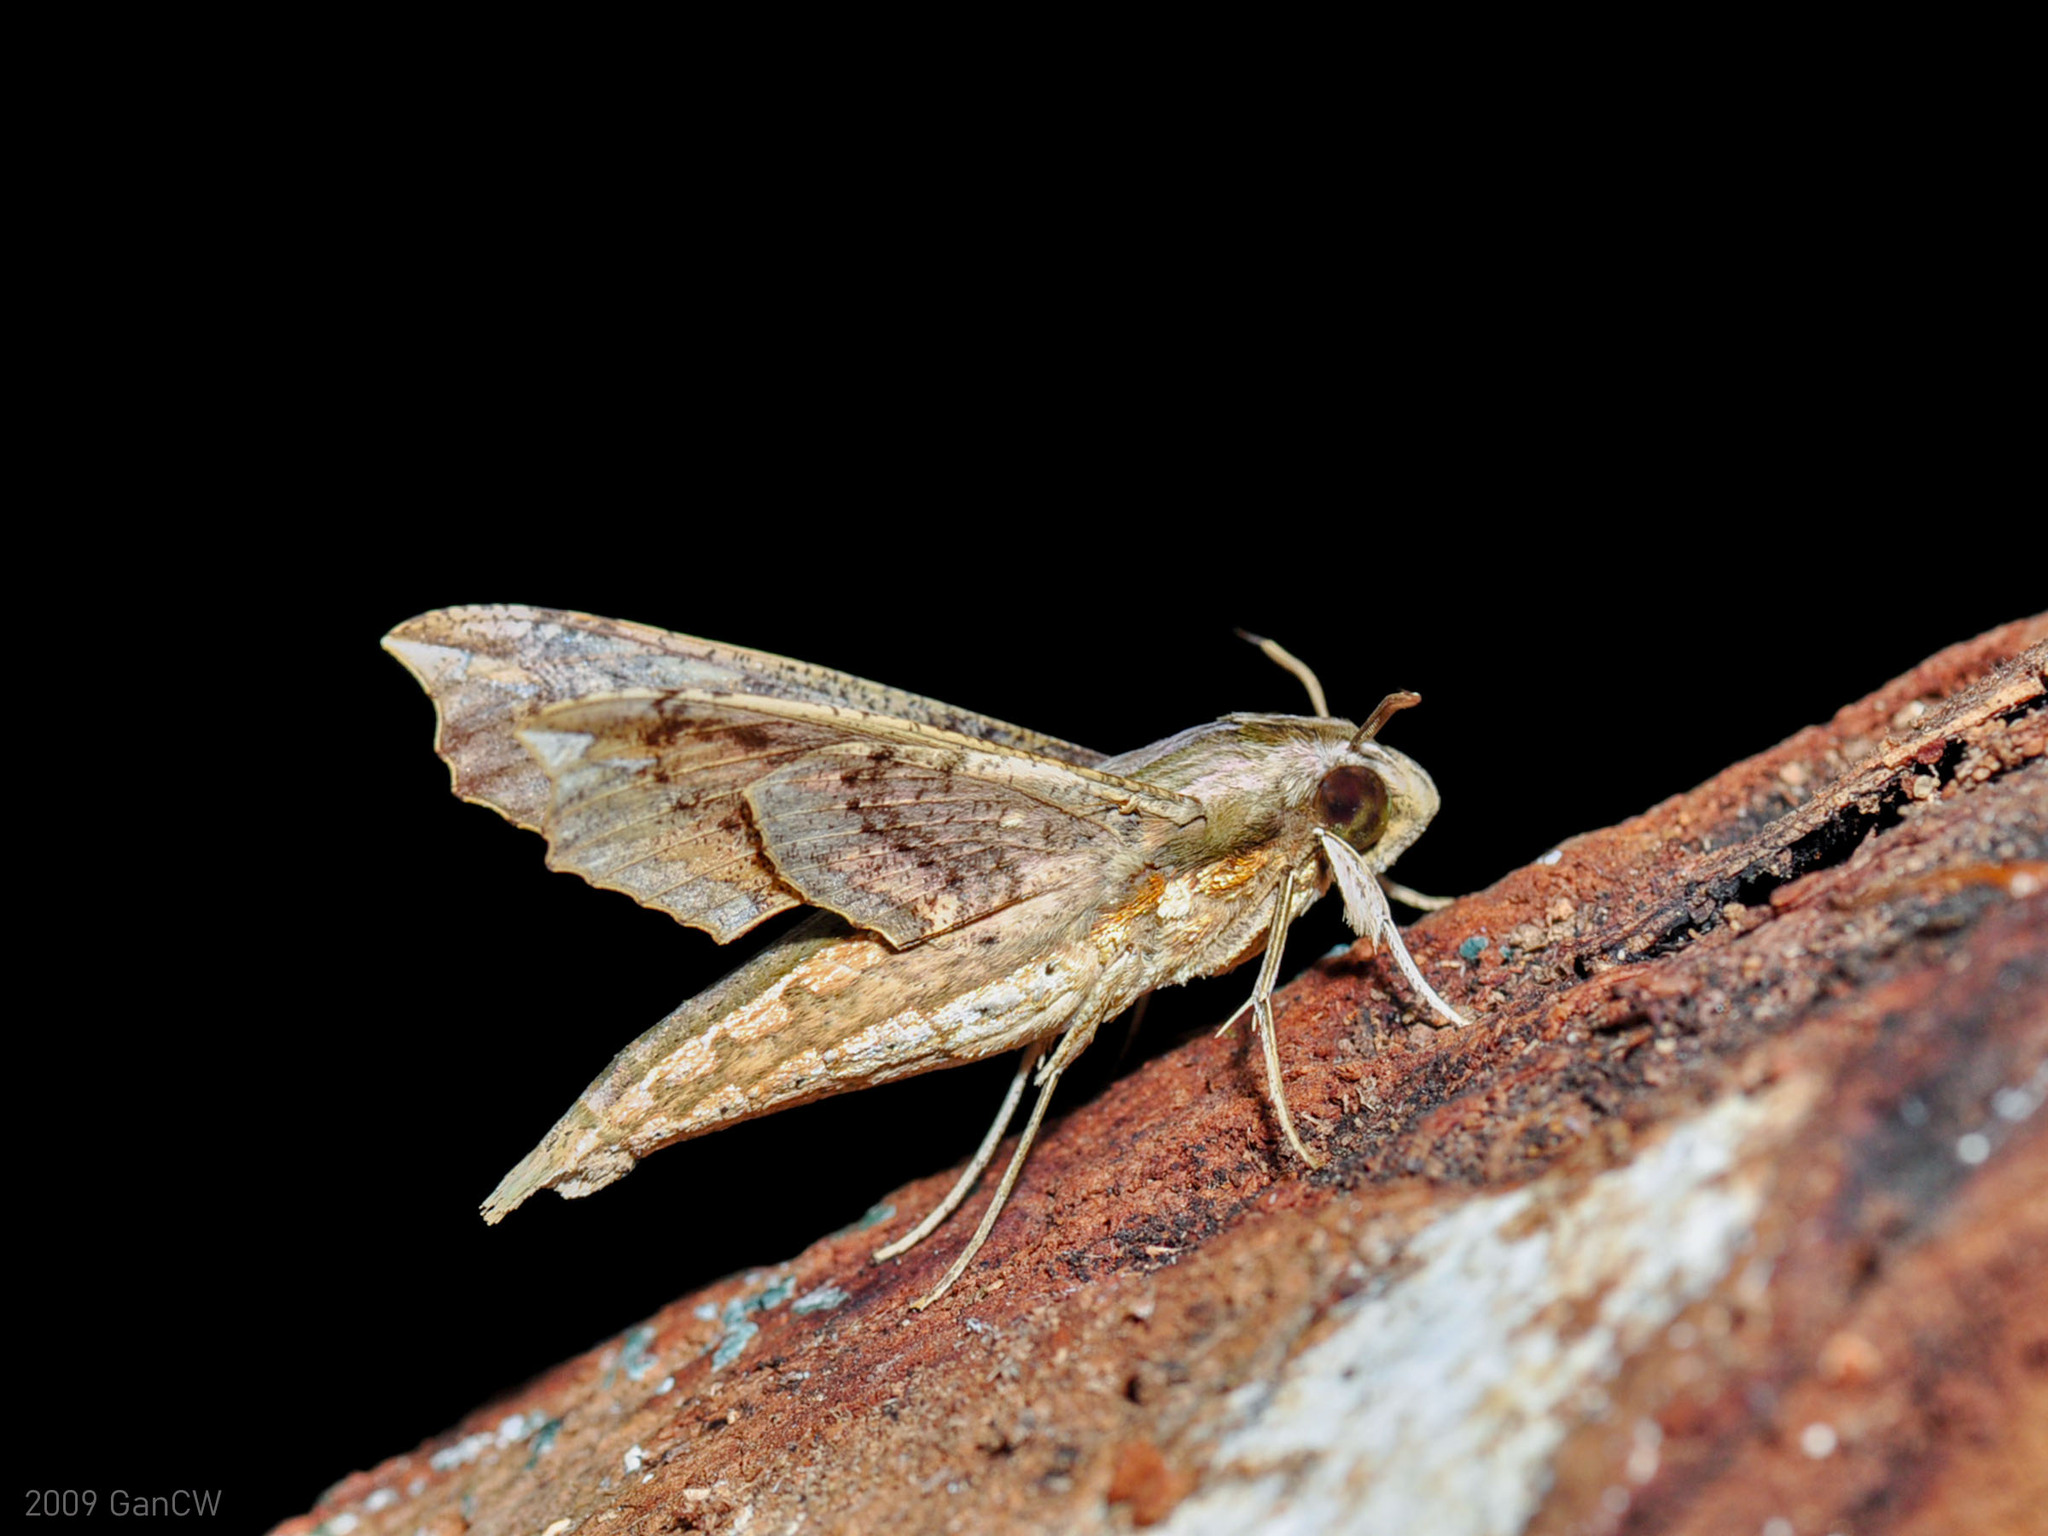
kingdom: Animalia
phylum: Arthropoda
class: Insecta
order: Lepidoptera
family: Sphingidae
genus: Eupanacra
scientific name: Eupanacra regularis
